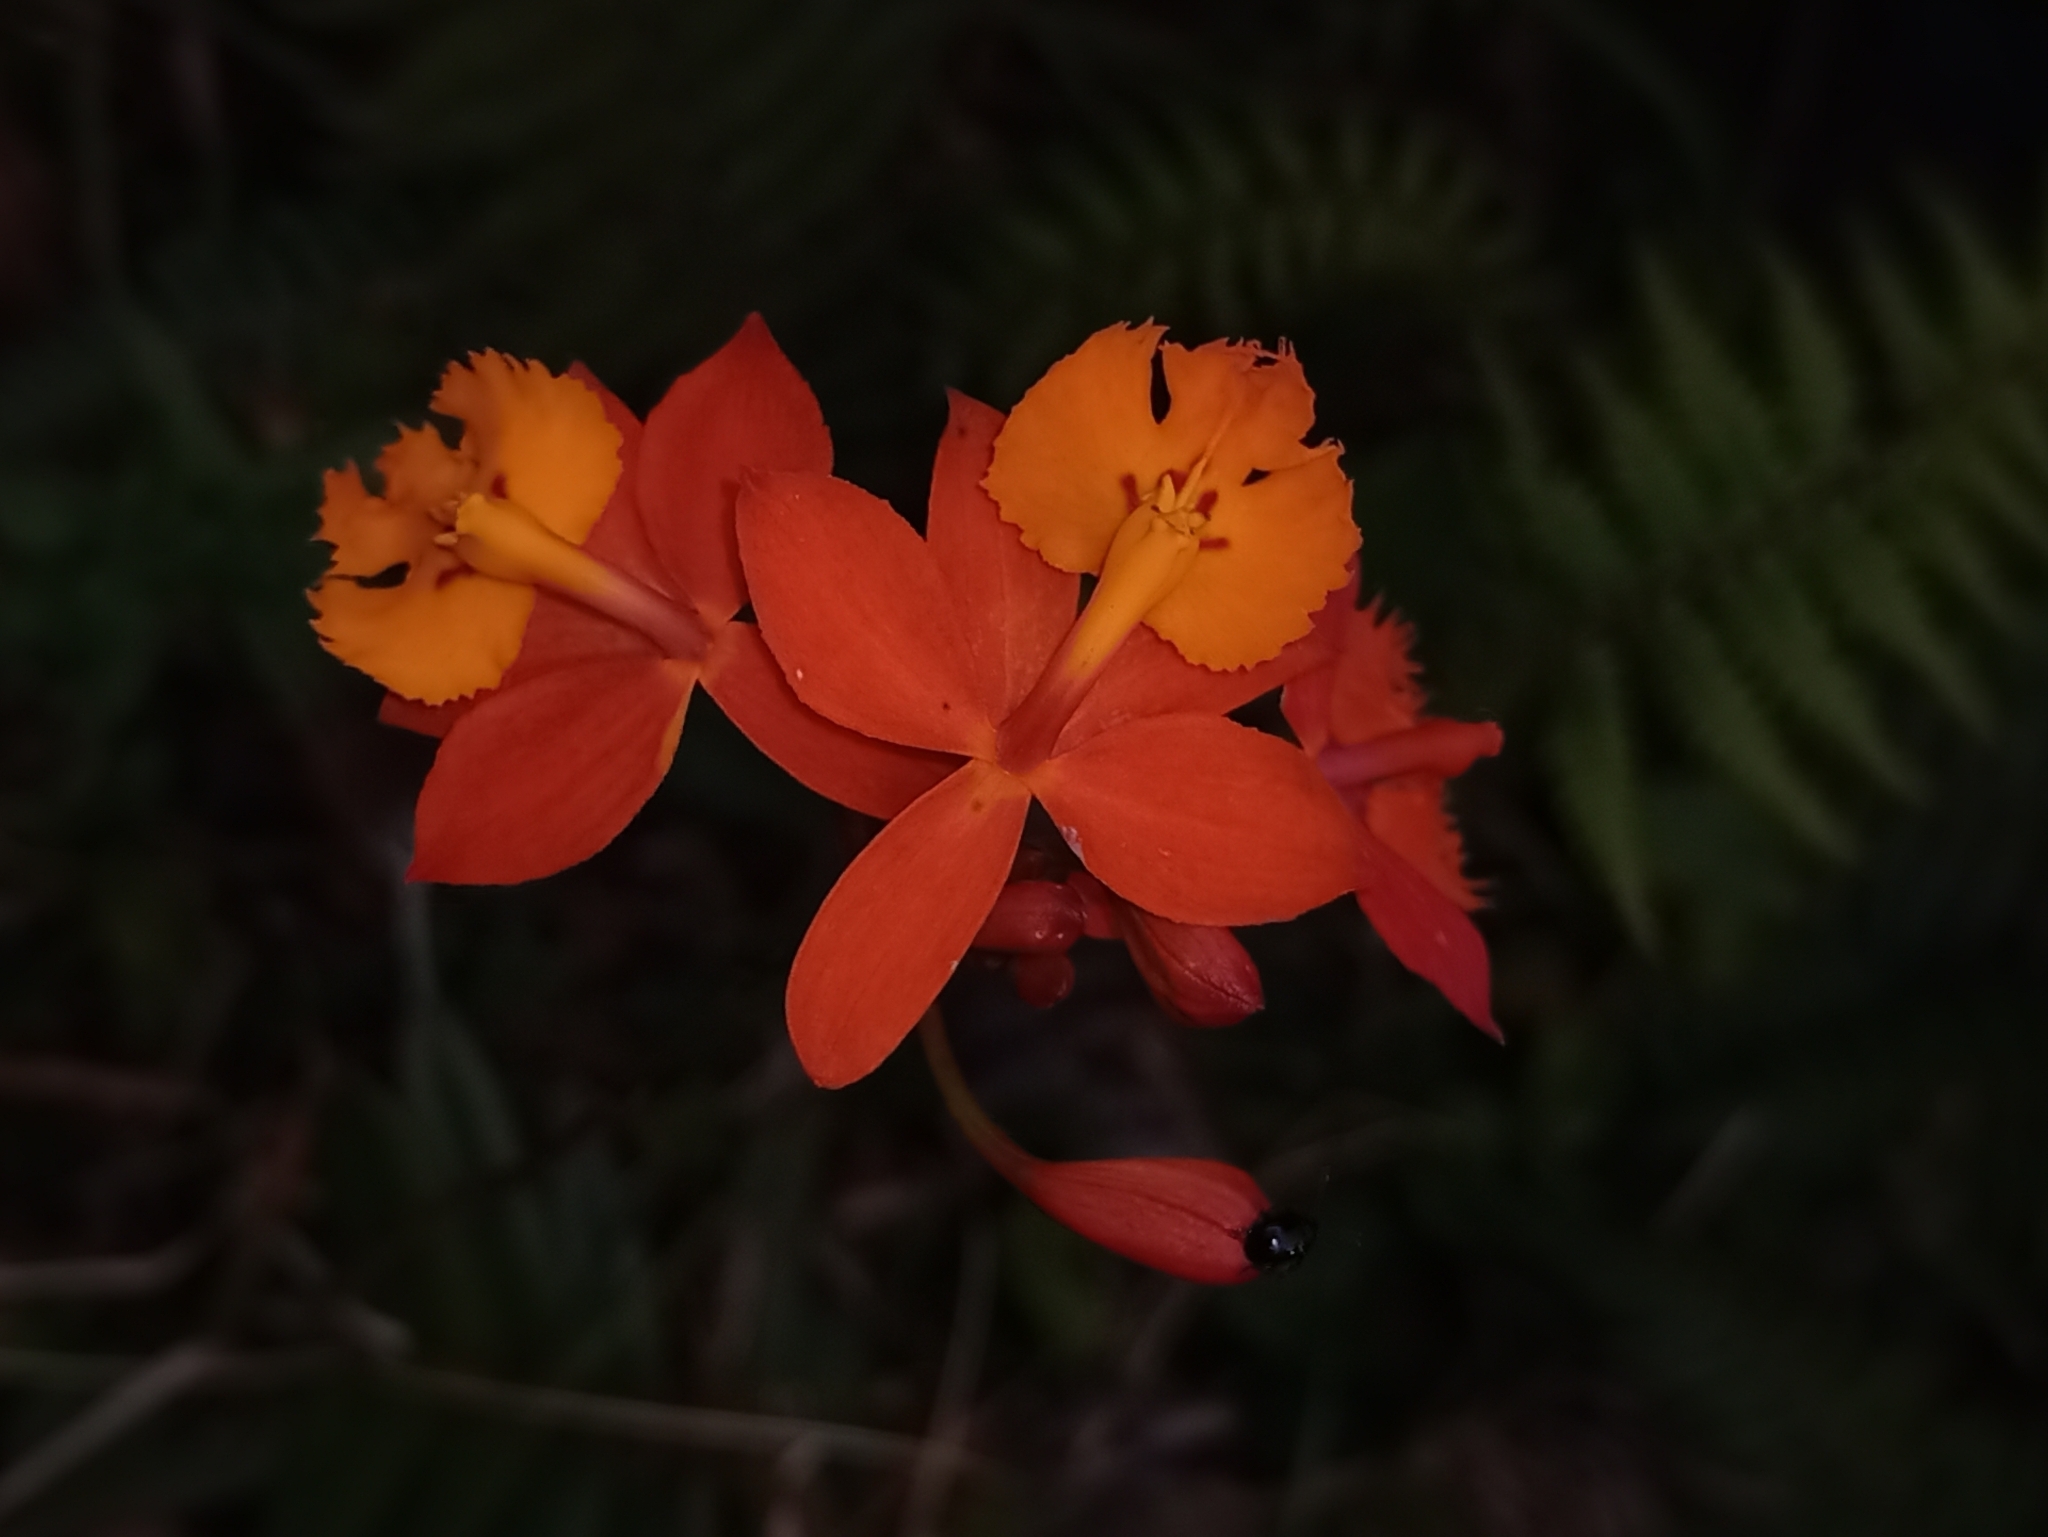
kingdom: Plantae
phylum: Tracheophyta
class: Liliopsida
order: Asparagales
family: Orchidaceae
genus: Epidendrum
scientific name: Epidendrum radicans
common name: Fire star orchid
